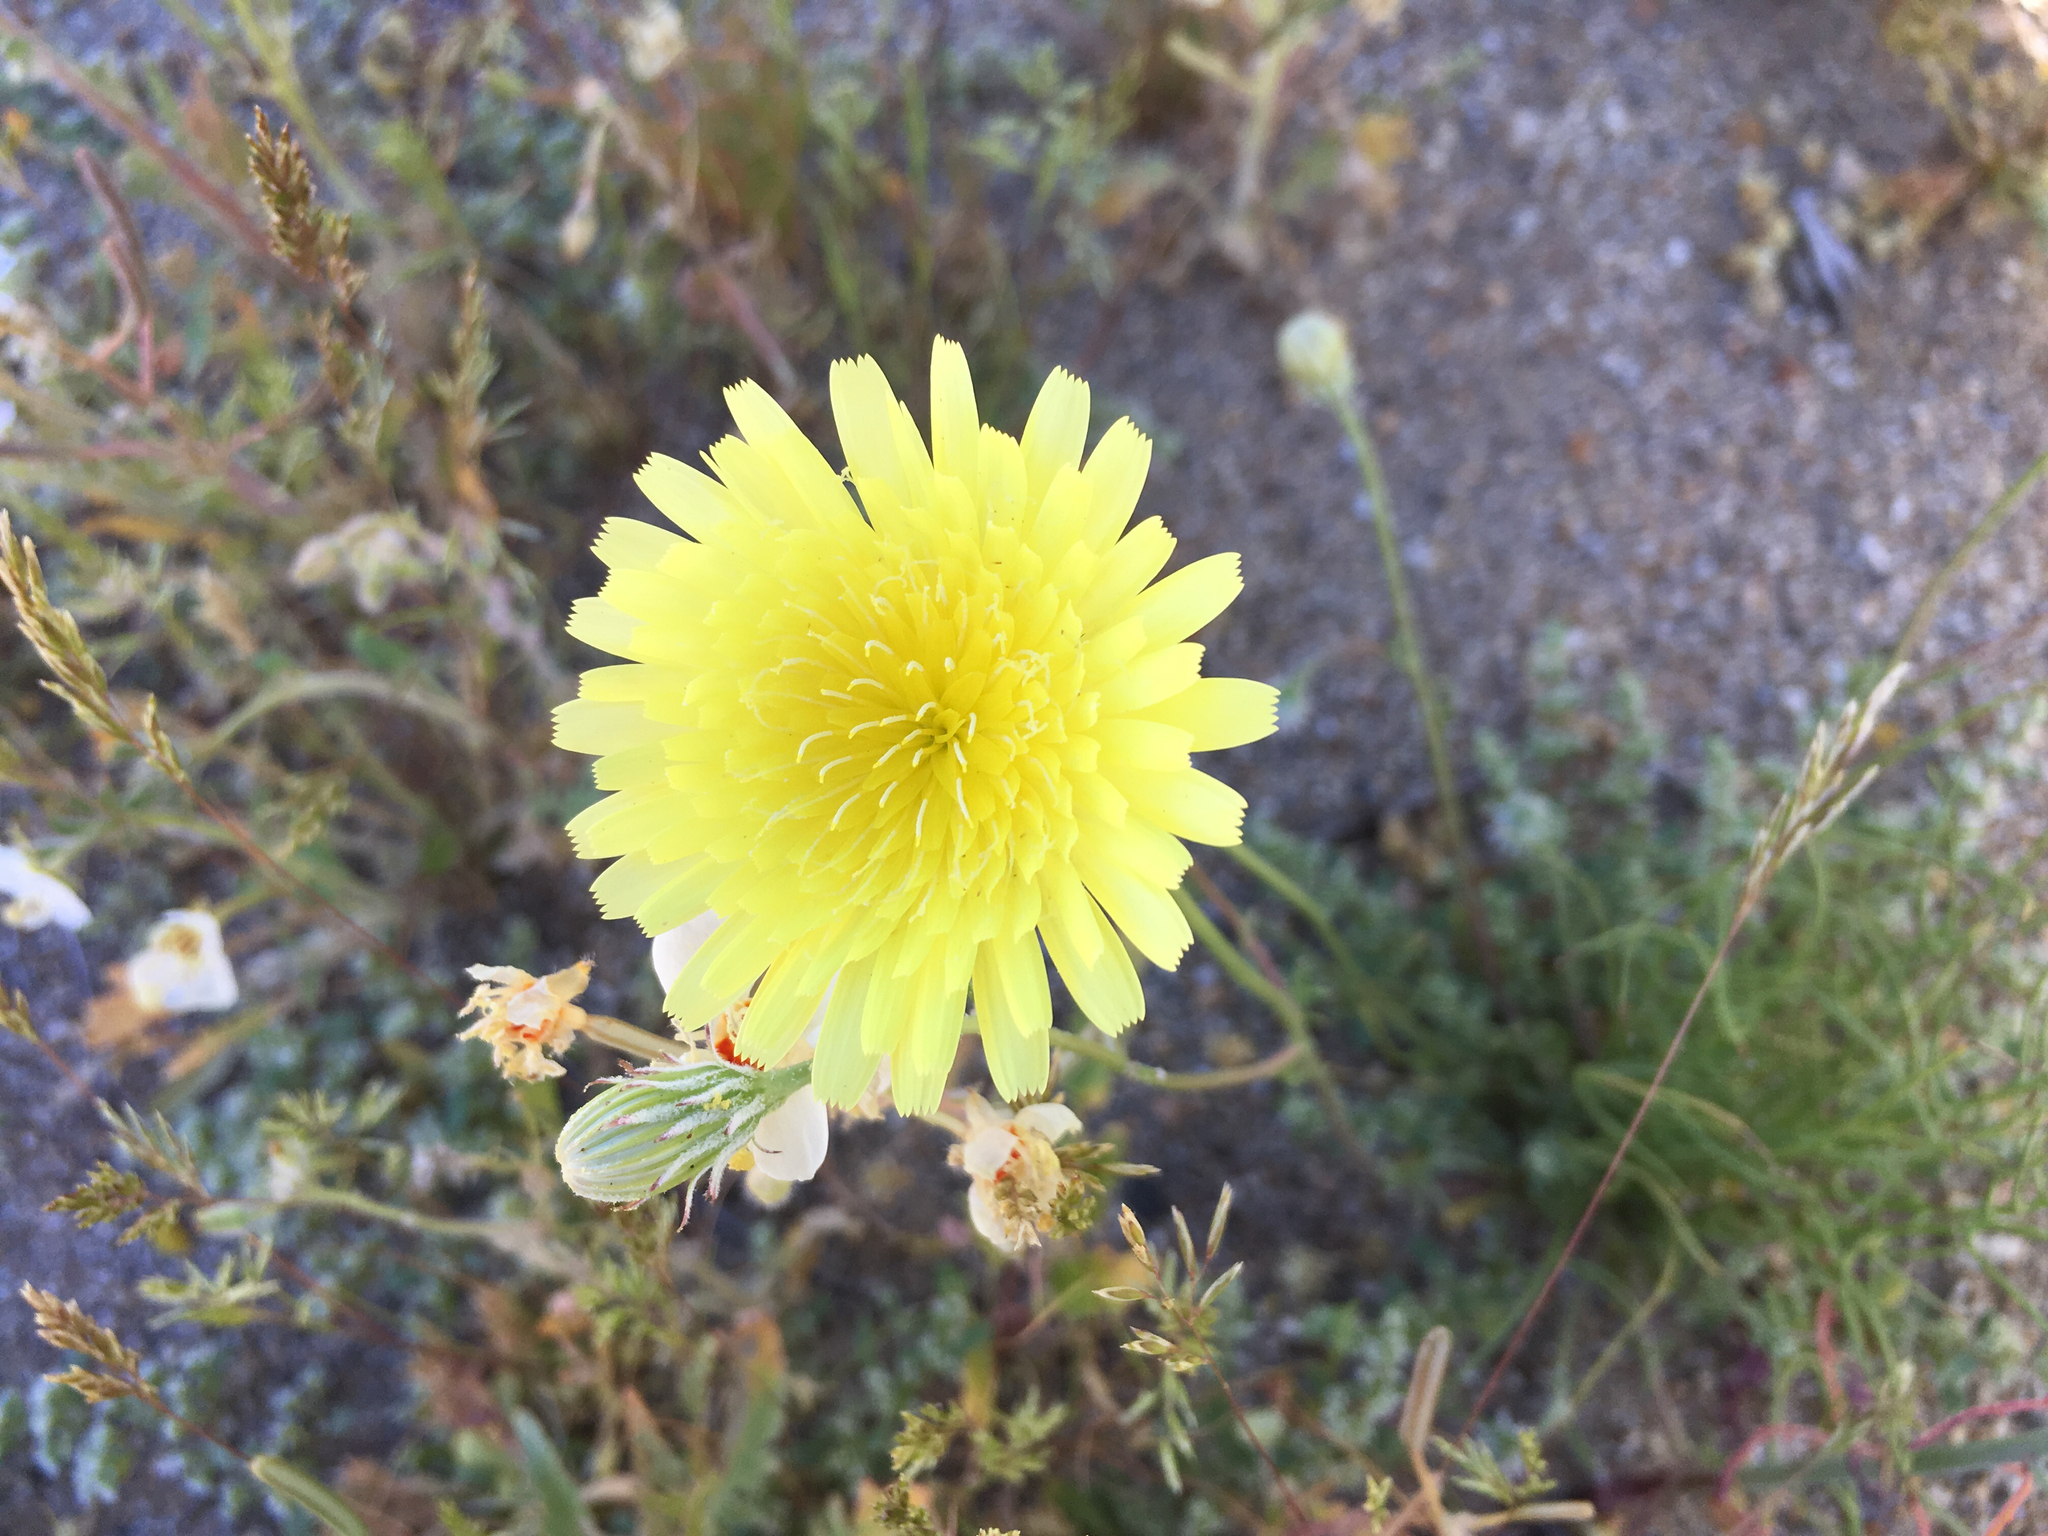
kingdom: Plantae
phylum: Tracheophyta
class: Magnoliopsida
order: Asterales
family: Asteraceae
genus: Malacothrix
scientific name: Malacothrix glabrata
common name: Smooth desert-dandelion
